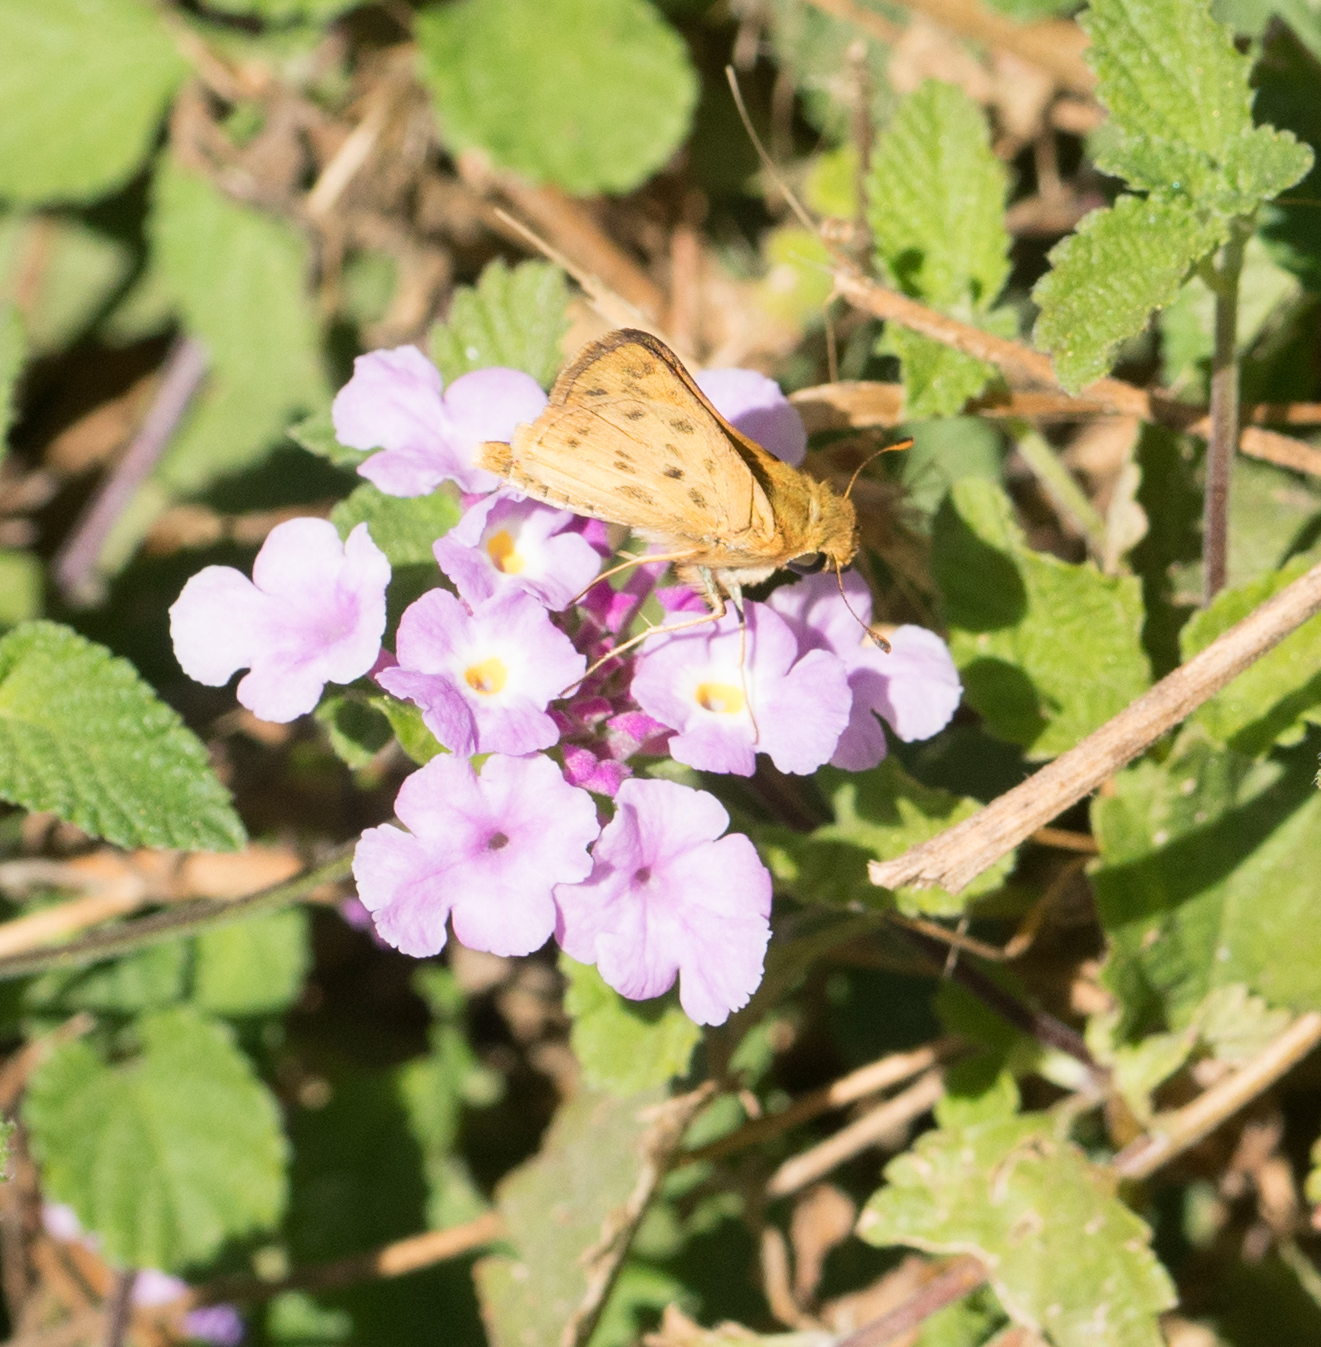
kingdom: Animalia
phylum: Arthropoda
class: Insecta
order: Lepidoptera
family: Hesperiidae
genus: Hylephila
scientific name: Hylephila phyleus
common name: Fiery skipper
